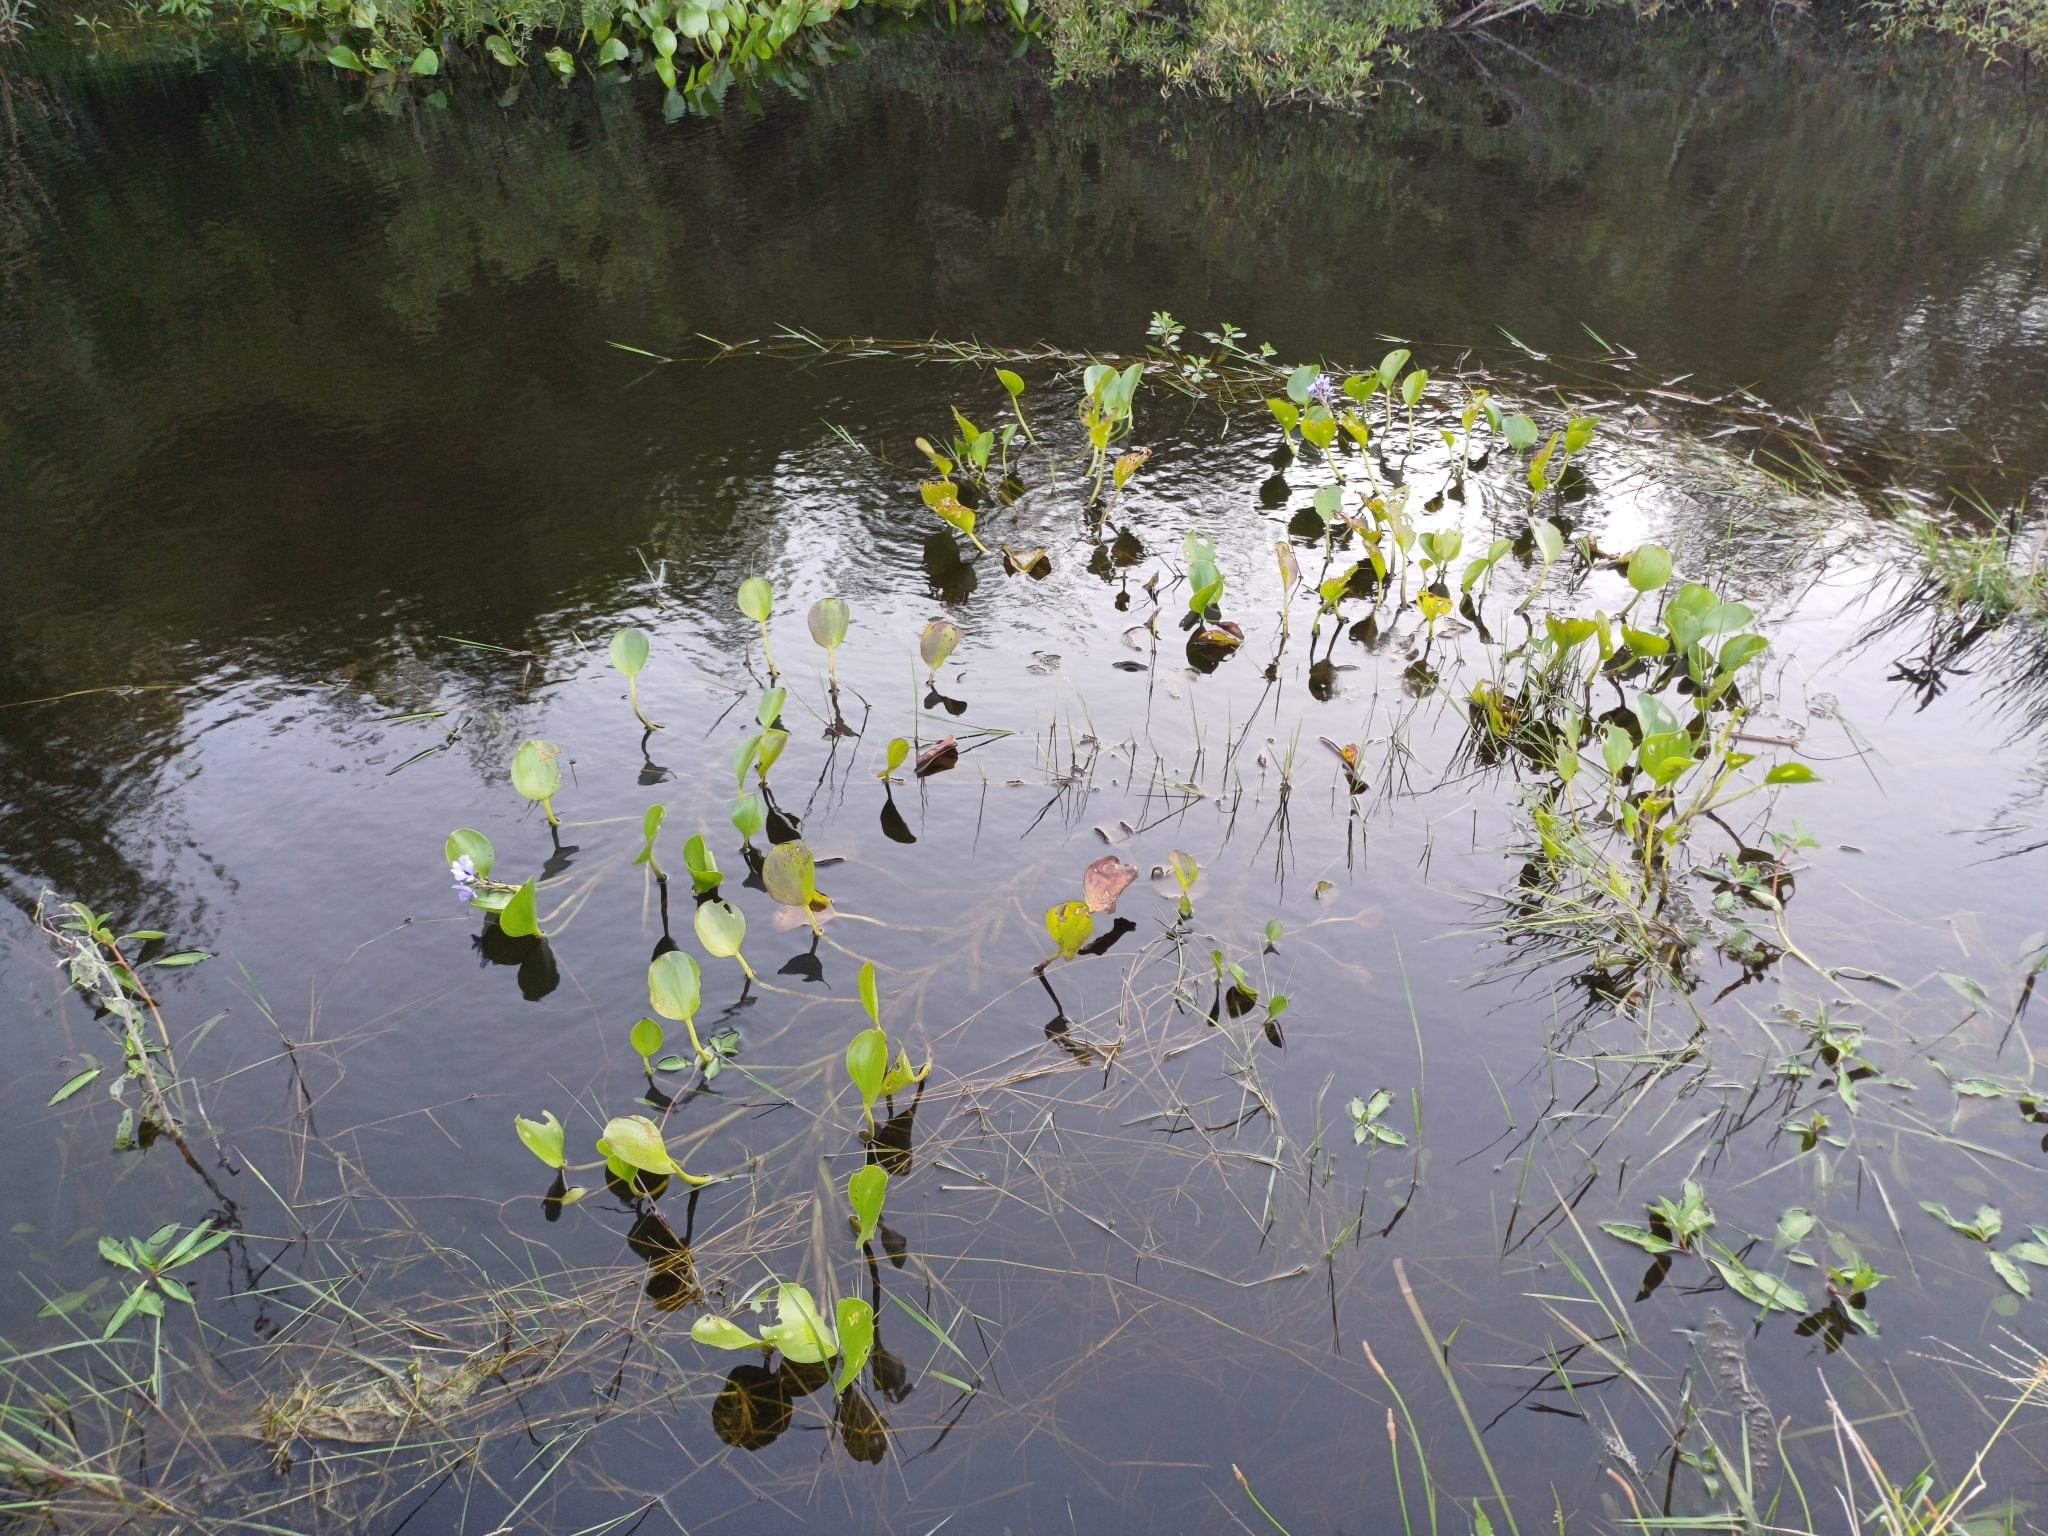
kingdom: Plantae
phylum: Tracheophyta
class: Liliopsida
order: Commelinales
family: Pontederiaceae
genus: Pontederia
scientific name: Pontederia azurea
